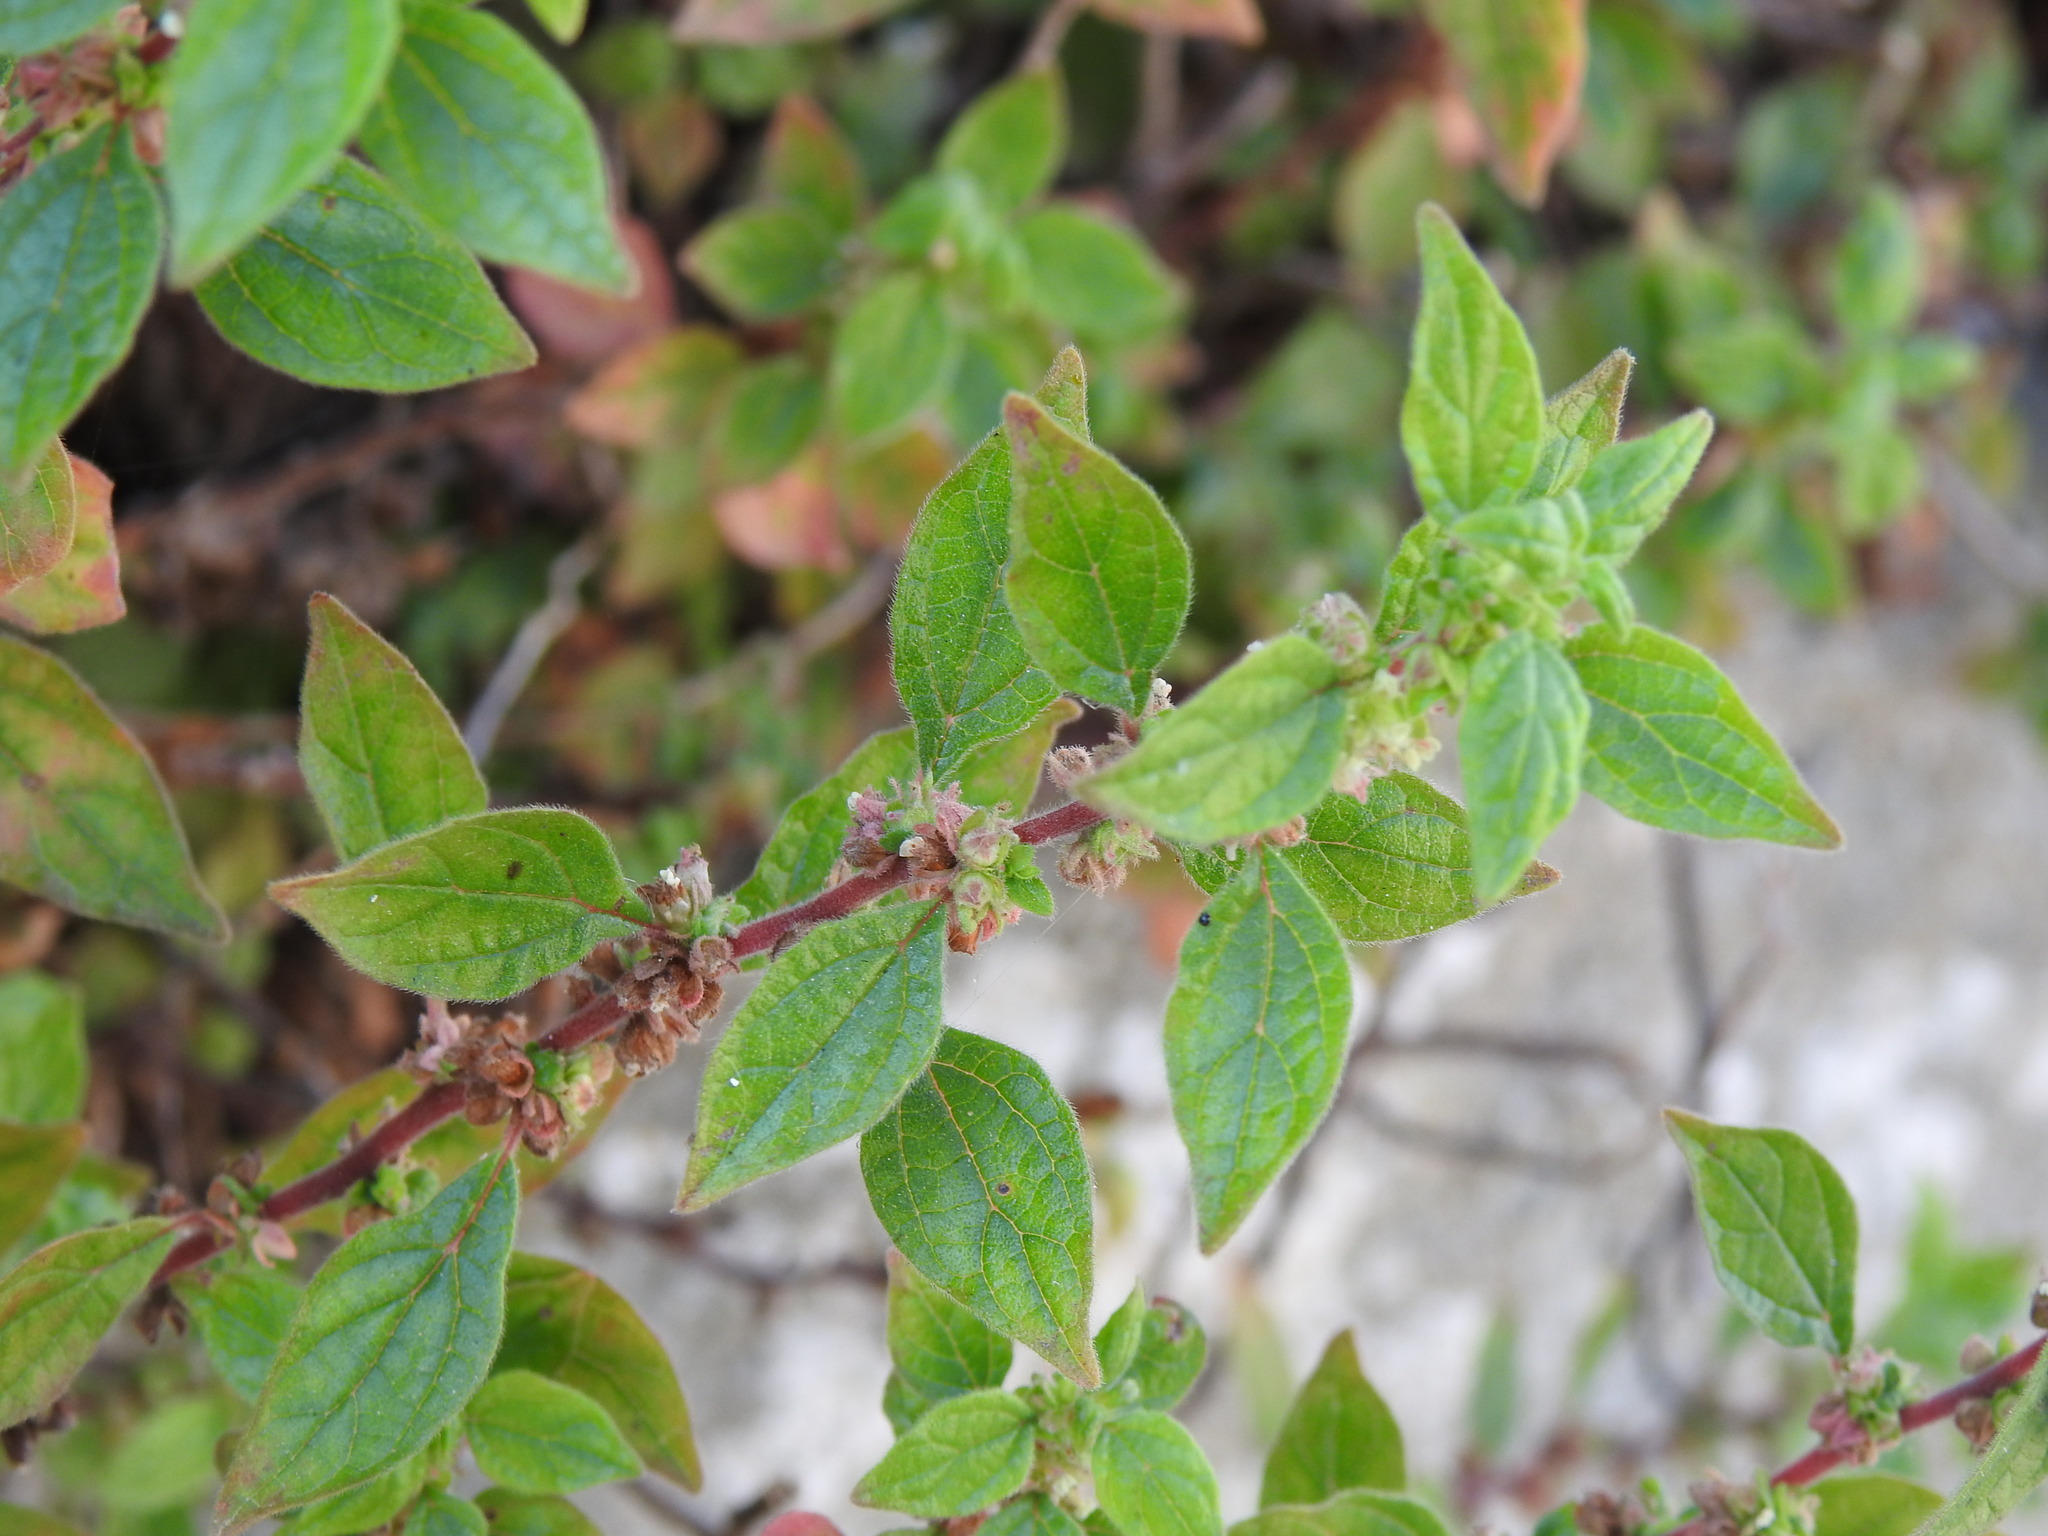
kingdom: Plantae
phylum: Tracheophyta
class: Magnoliopsida
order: Rosales
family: Urticaceae
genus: Parietaria
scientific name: Parietaria judaica
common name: Pellitory-of-the-wall
